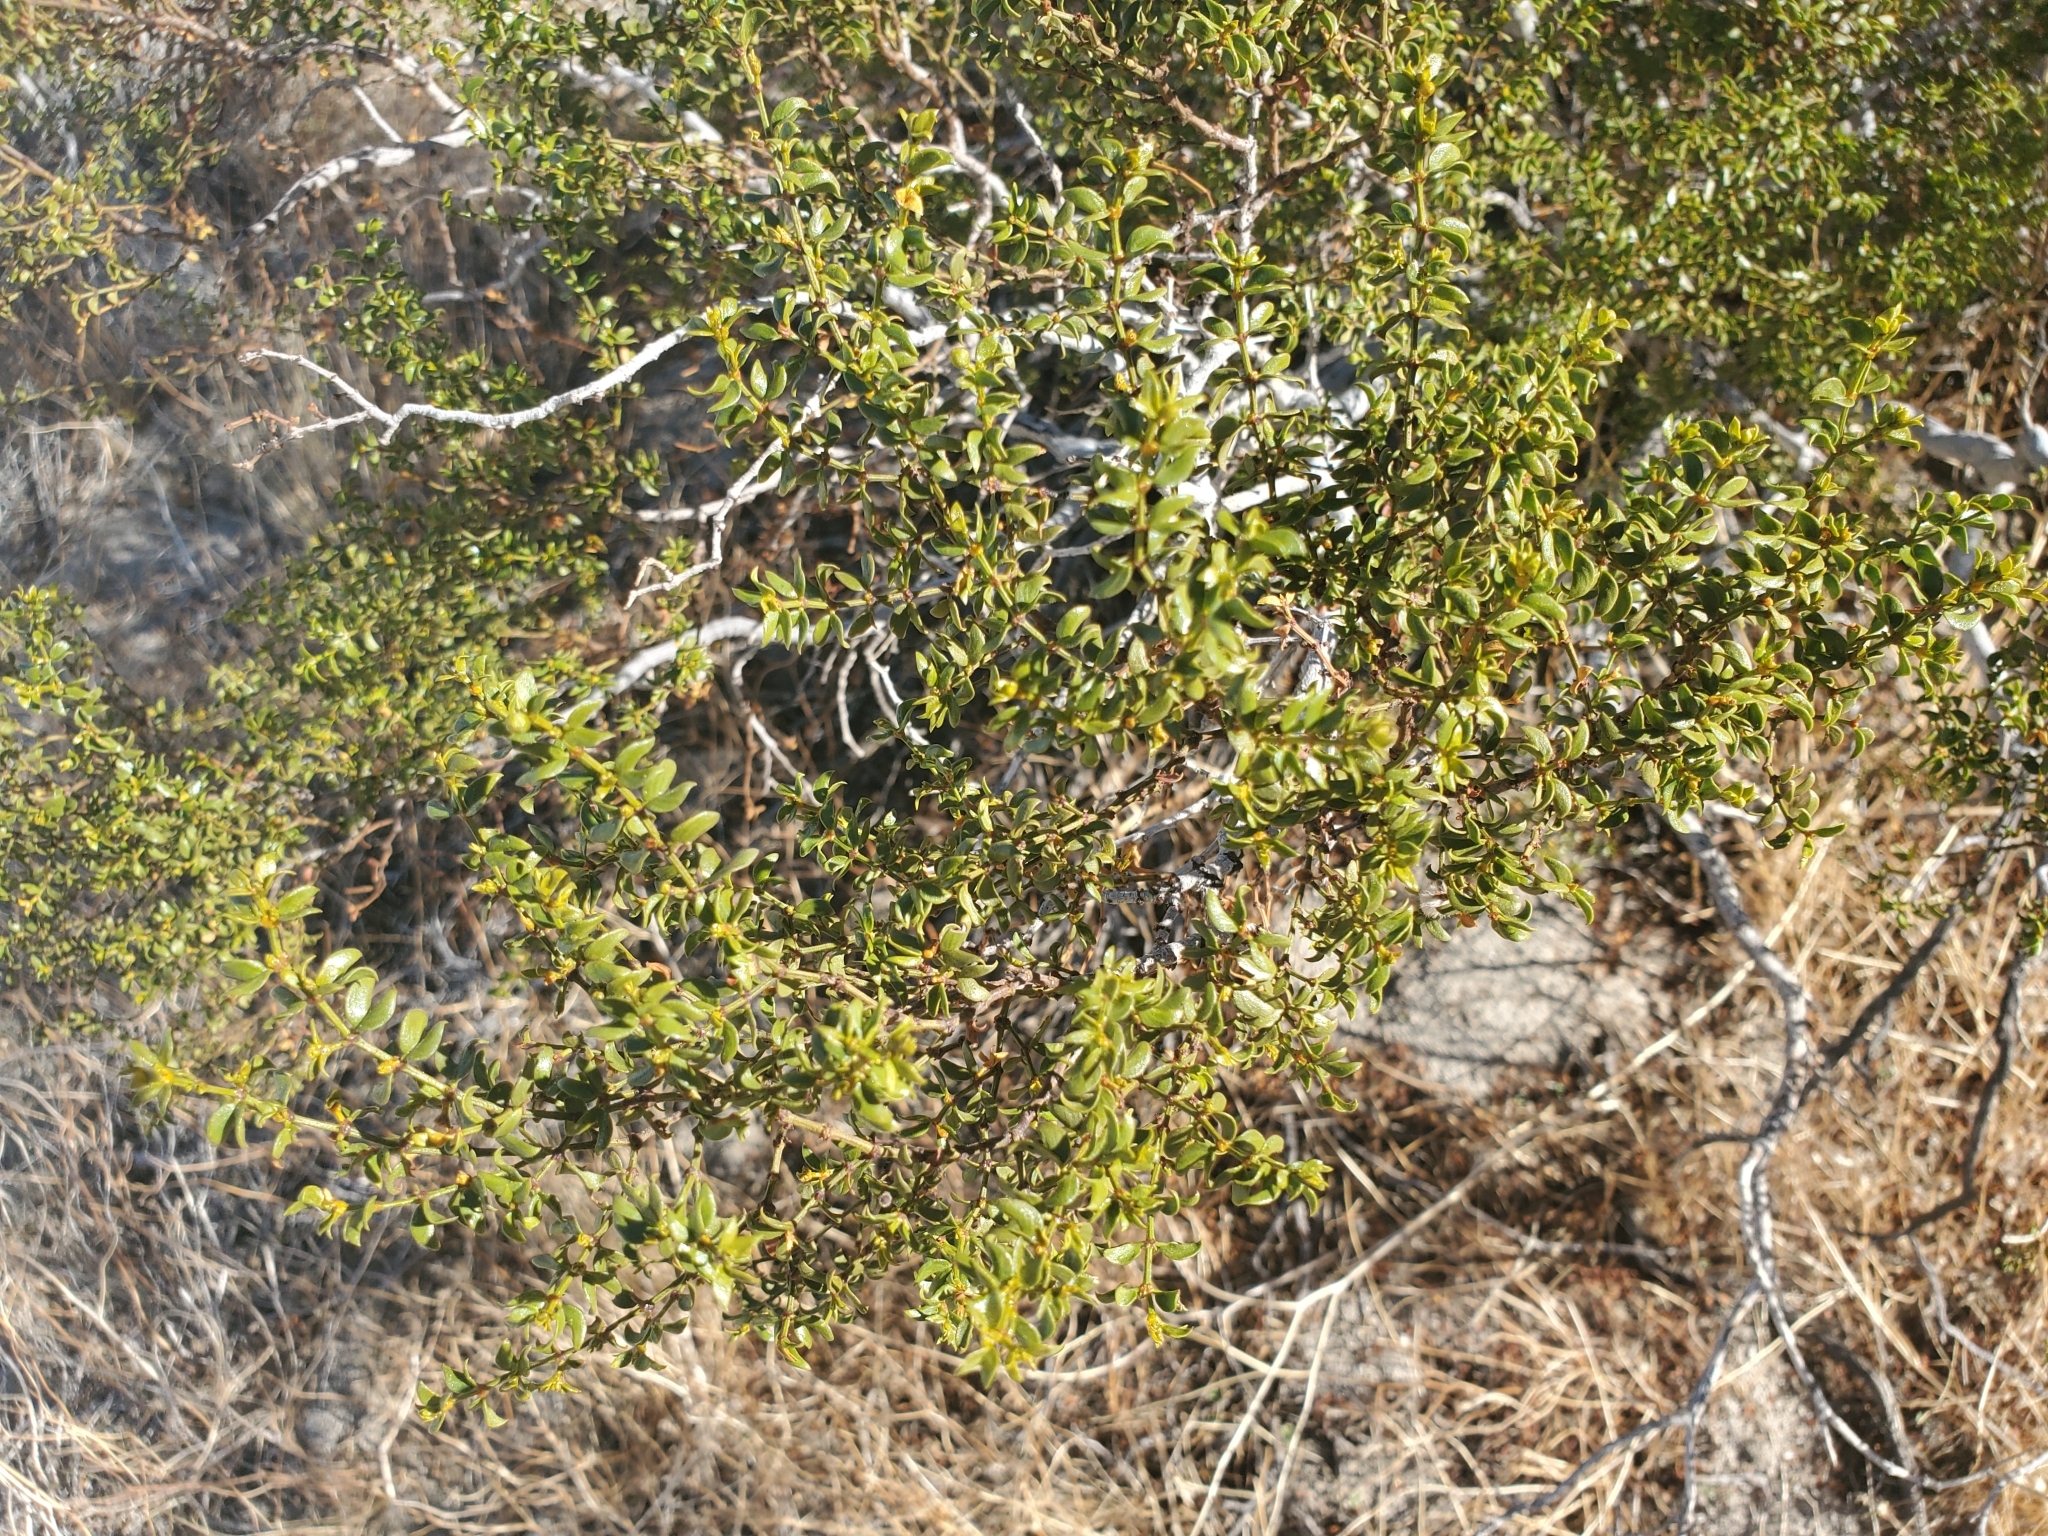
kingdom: Plantae
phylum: Tracheophyta
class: Magnoliopsida
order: Zygophyllales
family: Zygophyllaceae
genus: Larrea
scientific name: Larrea tridentata
